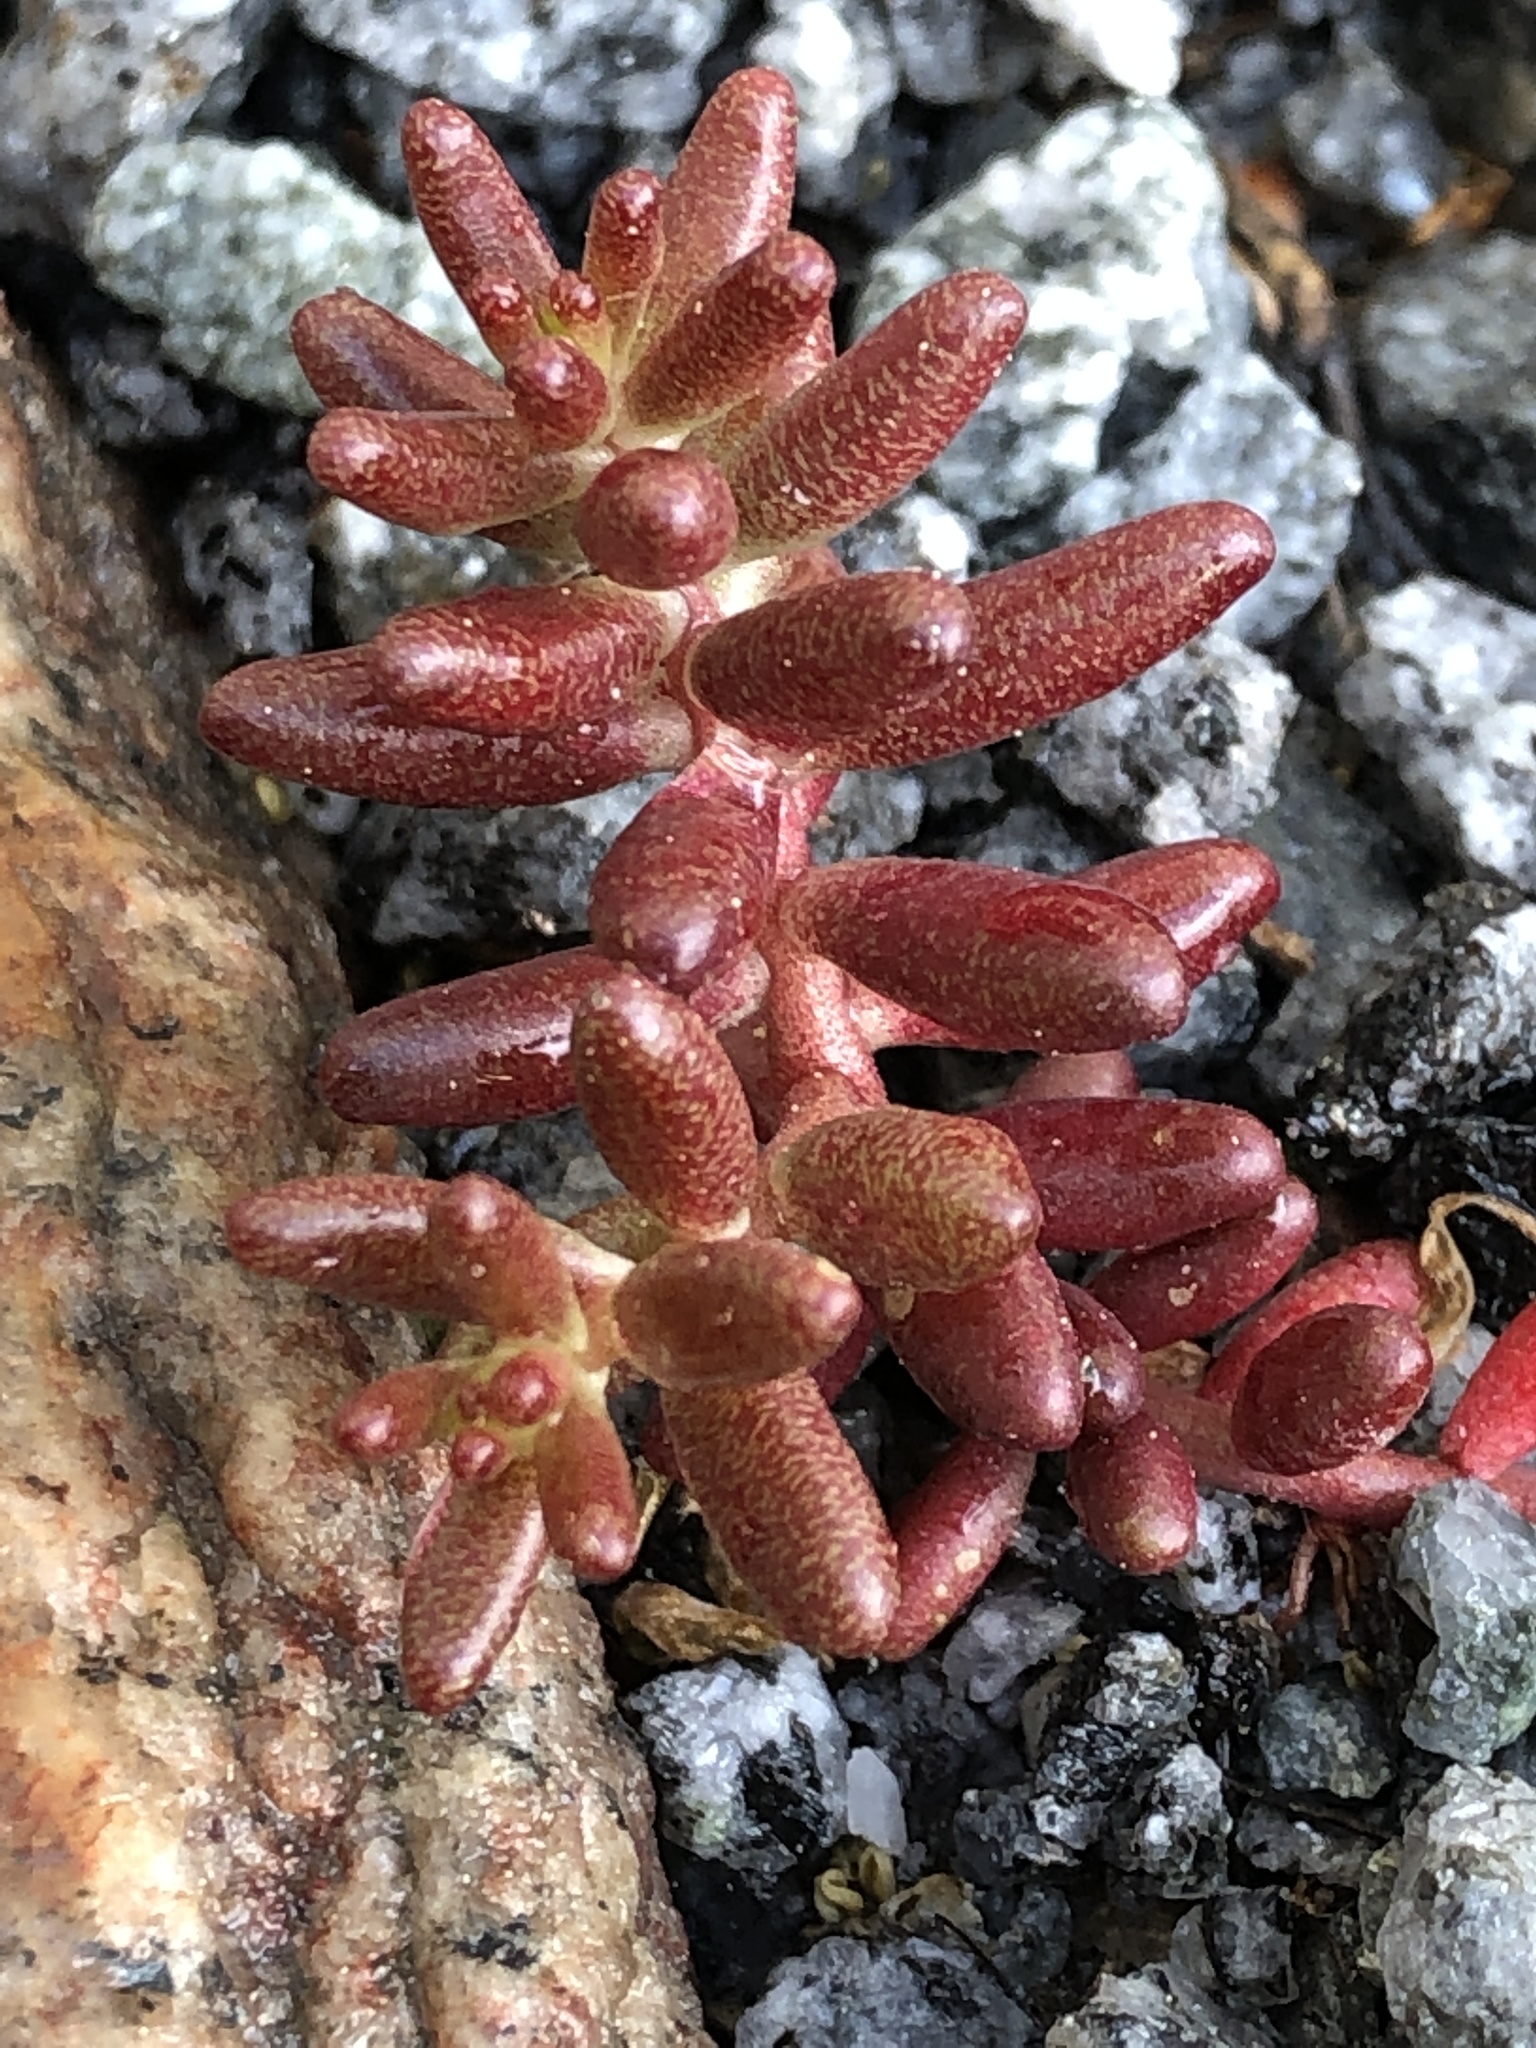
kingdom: Plantae
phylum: Tracheophyta
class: Magnoliopsida
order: Saxifragales
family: Crassulaceae
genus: Sedum
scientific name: Sedum album
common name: White stonecrop
